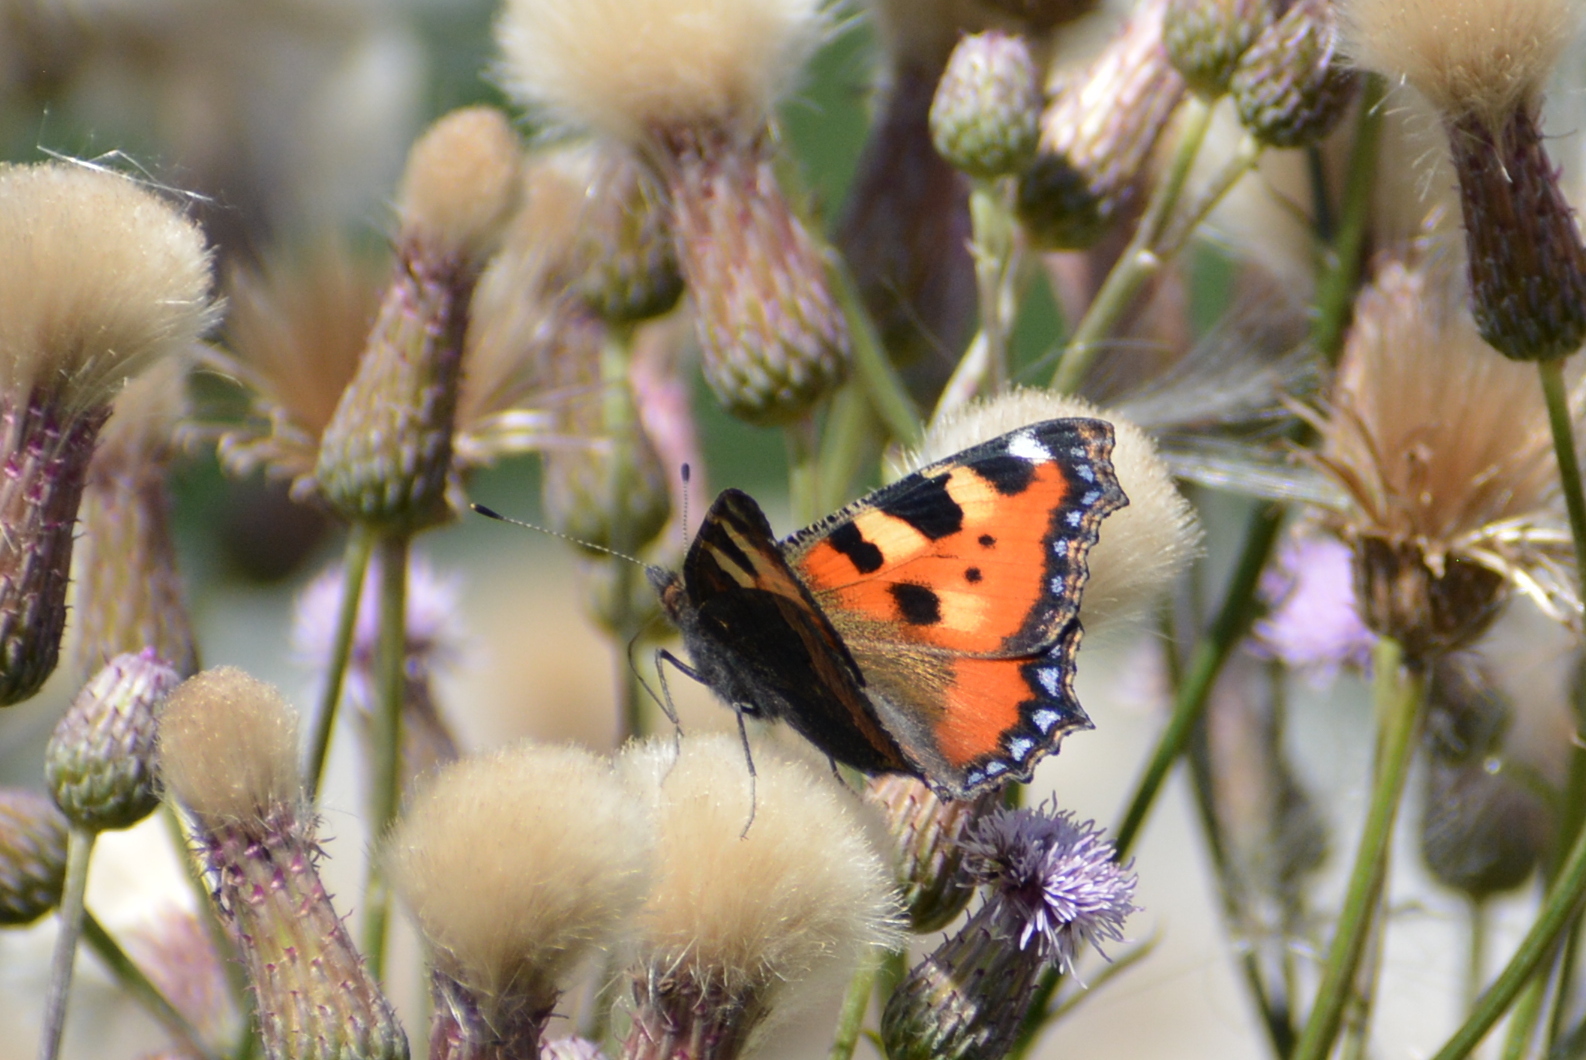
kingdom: Animalia
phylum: Arthropoda
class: Insecta
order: Lepidoptera
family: Nymphalidae
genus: Aglais
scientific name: Aglais urticae
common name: Small tortoiseshell
